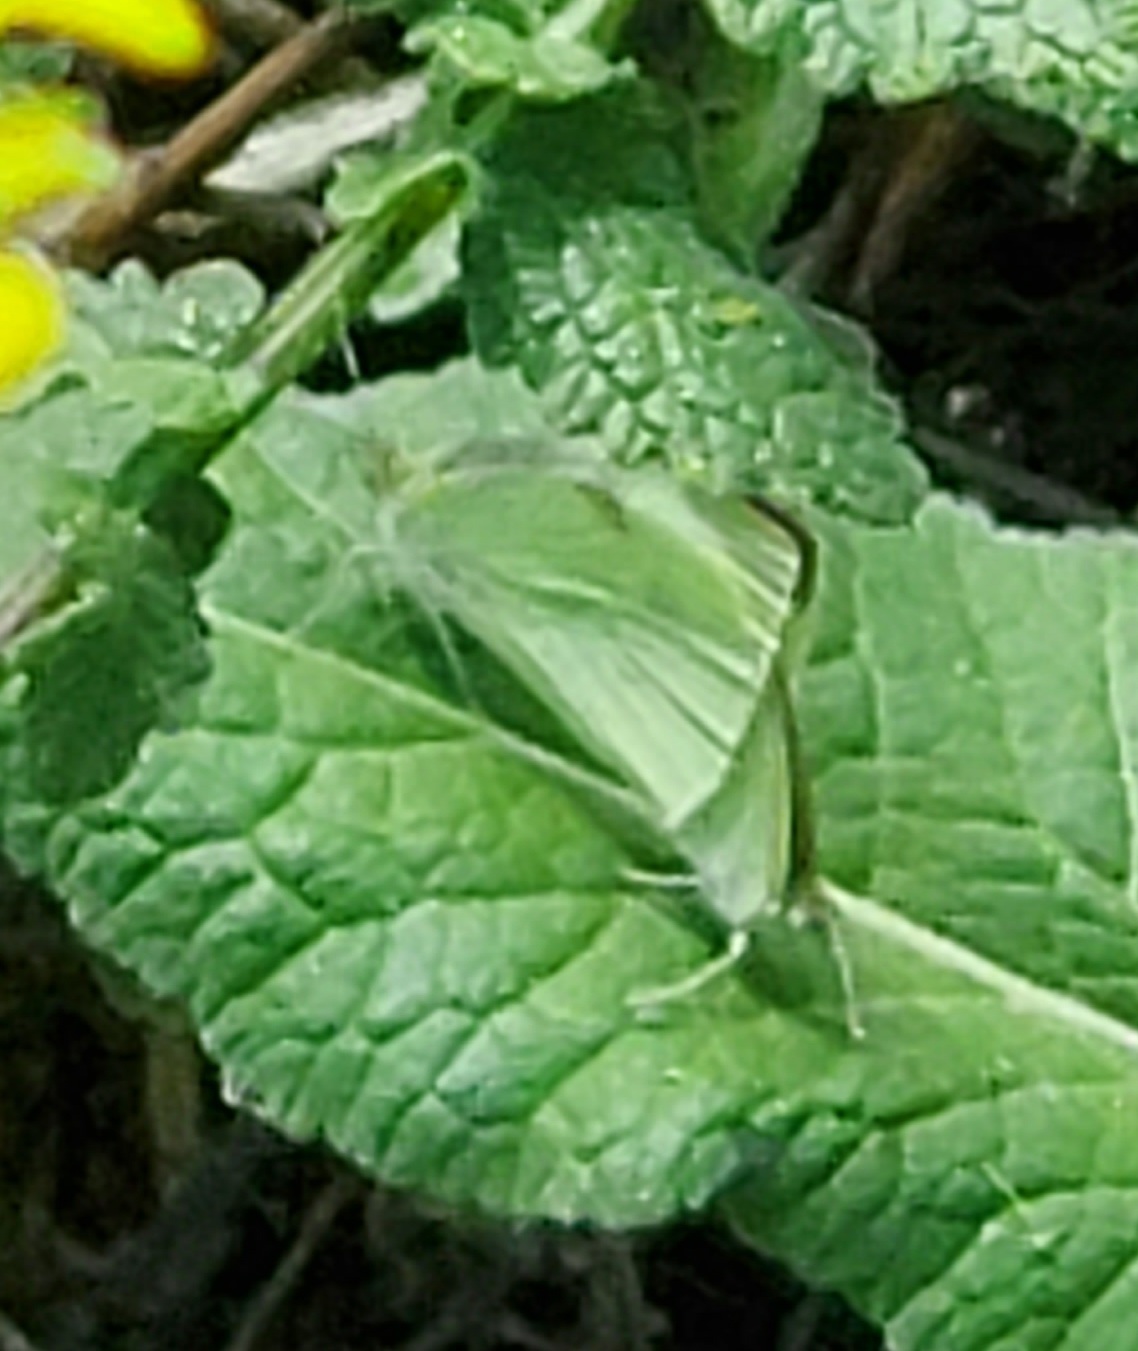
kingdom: Animalia
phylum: Arthropoda
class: Insecta
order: Lepidoptera
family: Pieridae
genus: Pieris
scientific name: Pieris rapae
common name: Small white
